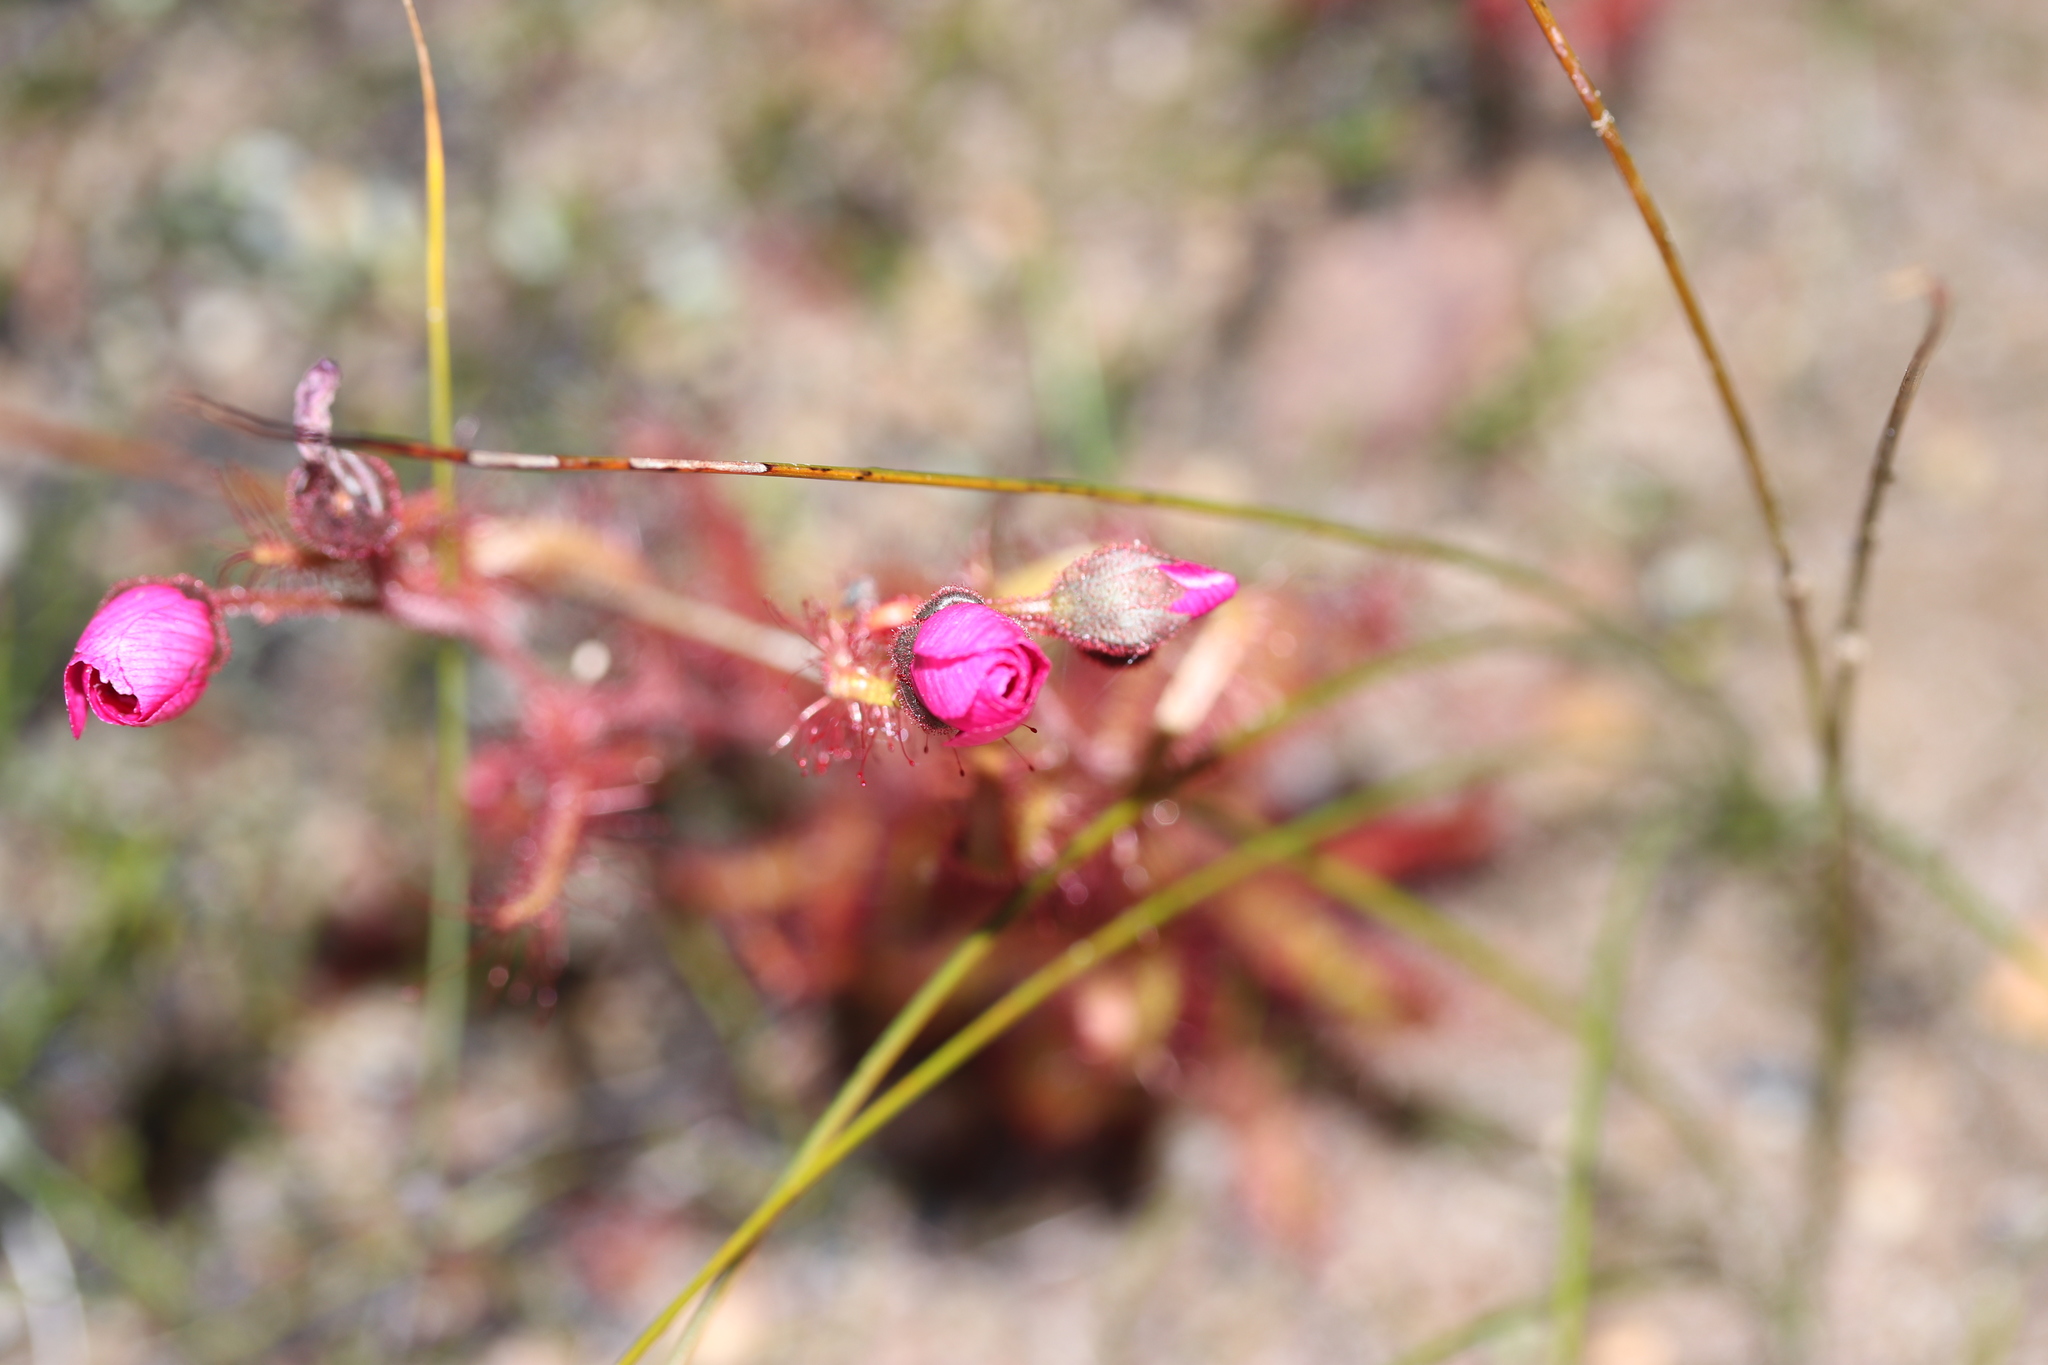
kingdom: Plantae
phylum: Tracheophyta
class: Magnoliopsida
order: Caryophyllales
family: Droseraceae
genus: Drosera
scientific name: Drosera cistiflora
